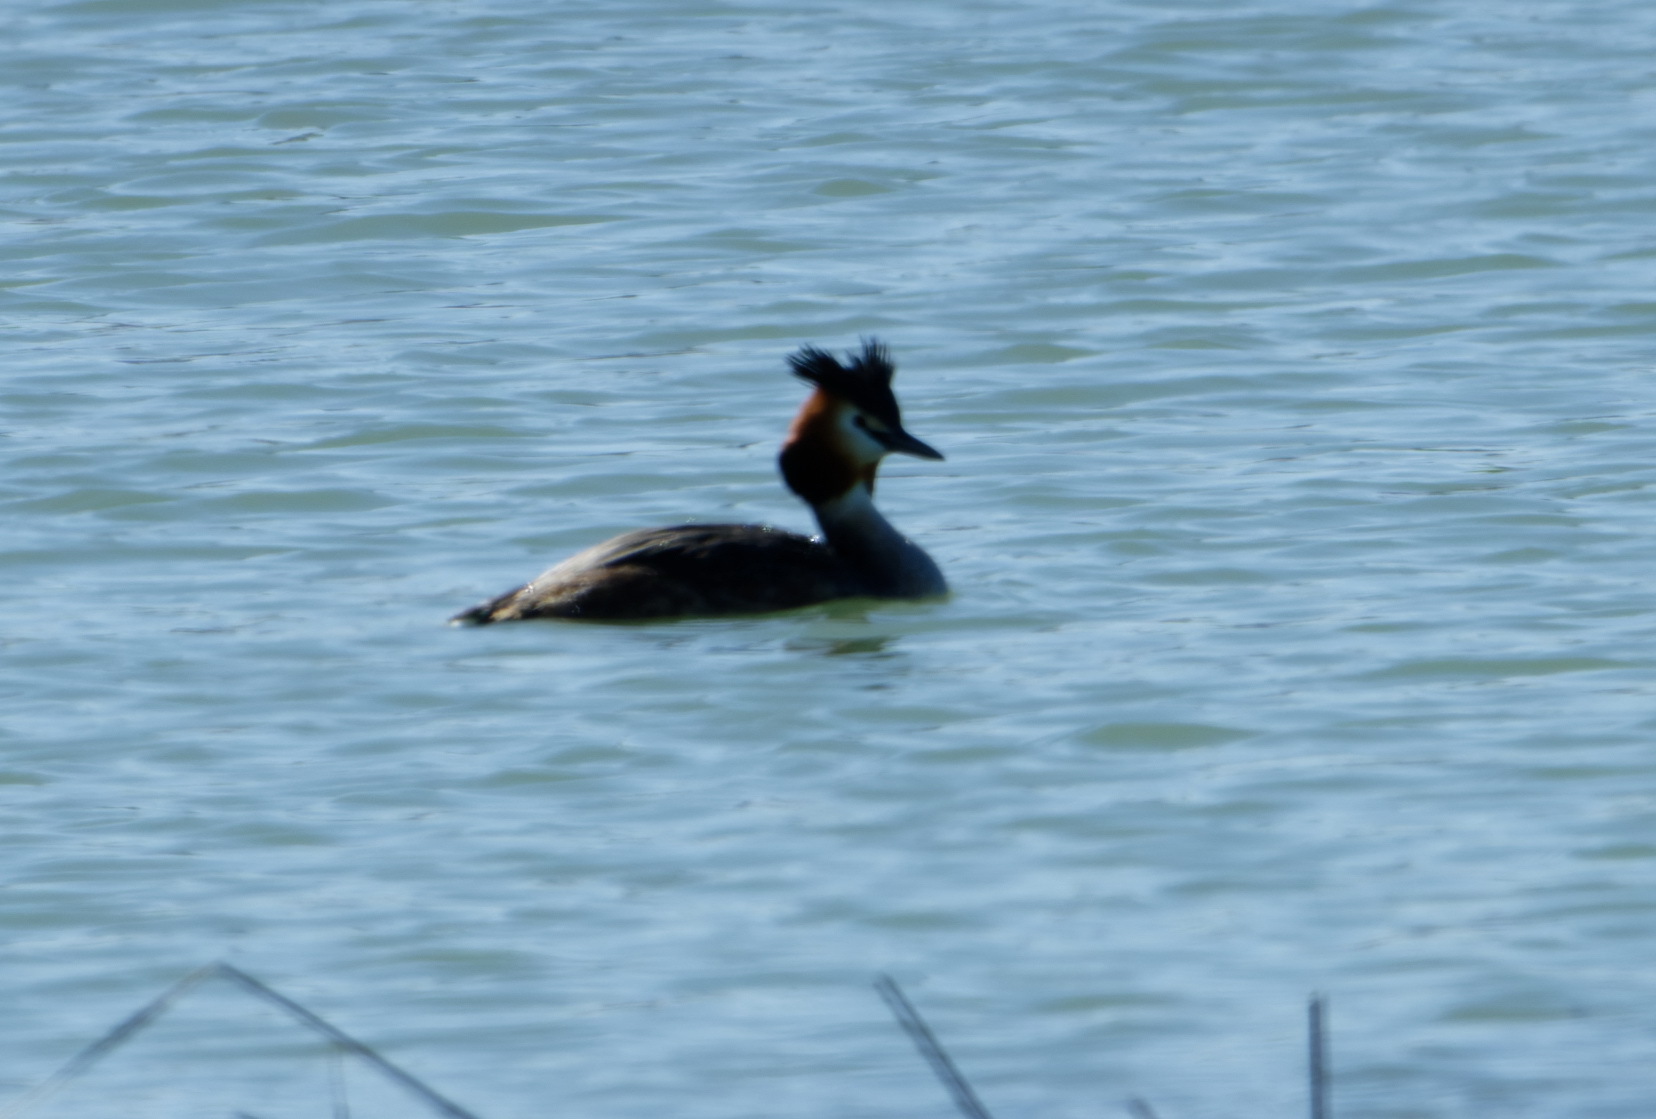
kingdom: Animalia
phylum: Chordata
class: Aves
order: Podicipediformes
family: Podicipedidae
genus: Podiceps
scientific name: Podiceps cristatus
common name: Great crested grebe
